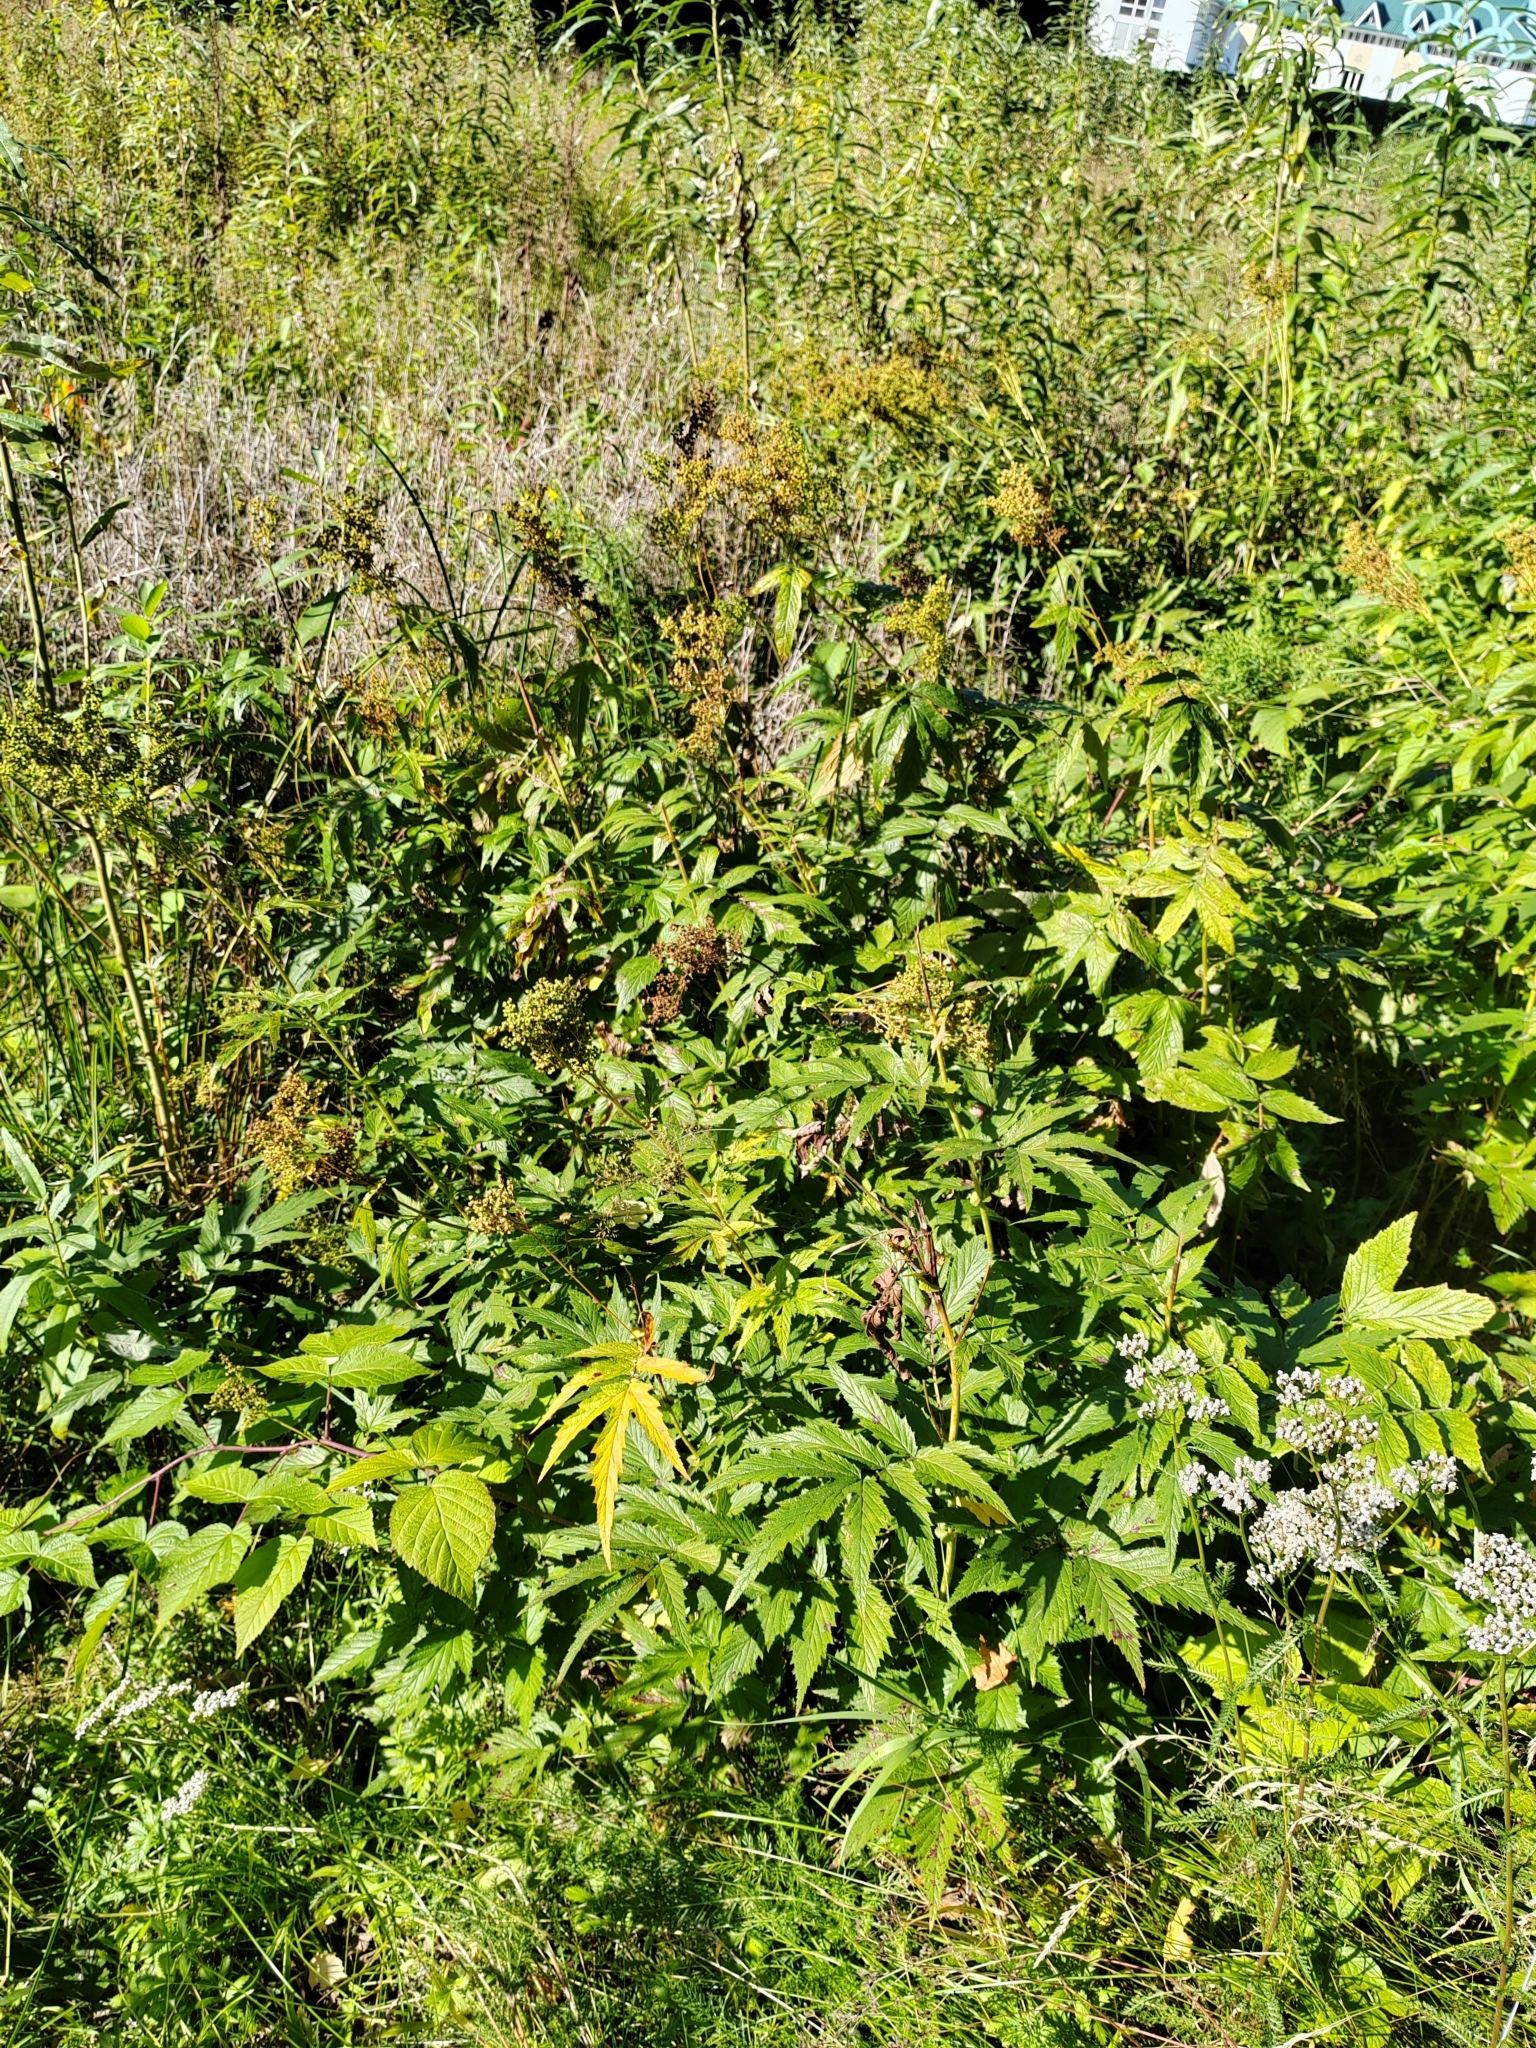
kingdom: Plantae
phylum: Tracheophyta
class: Magnoliopsida
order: Rosales
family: Rosaceae
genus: Filipendula
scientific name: Filipendula ulmaria
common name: Meadowsweet
